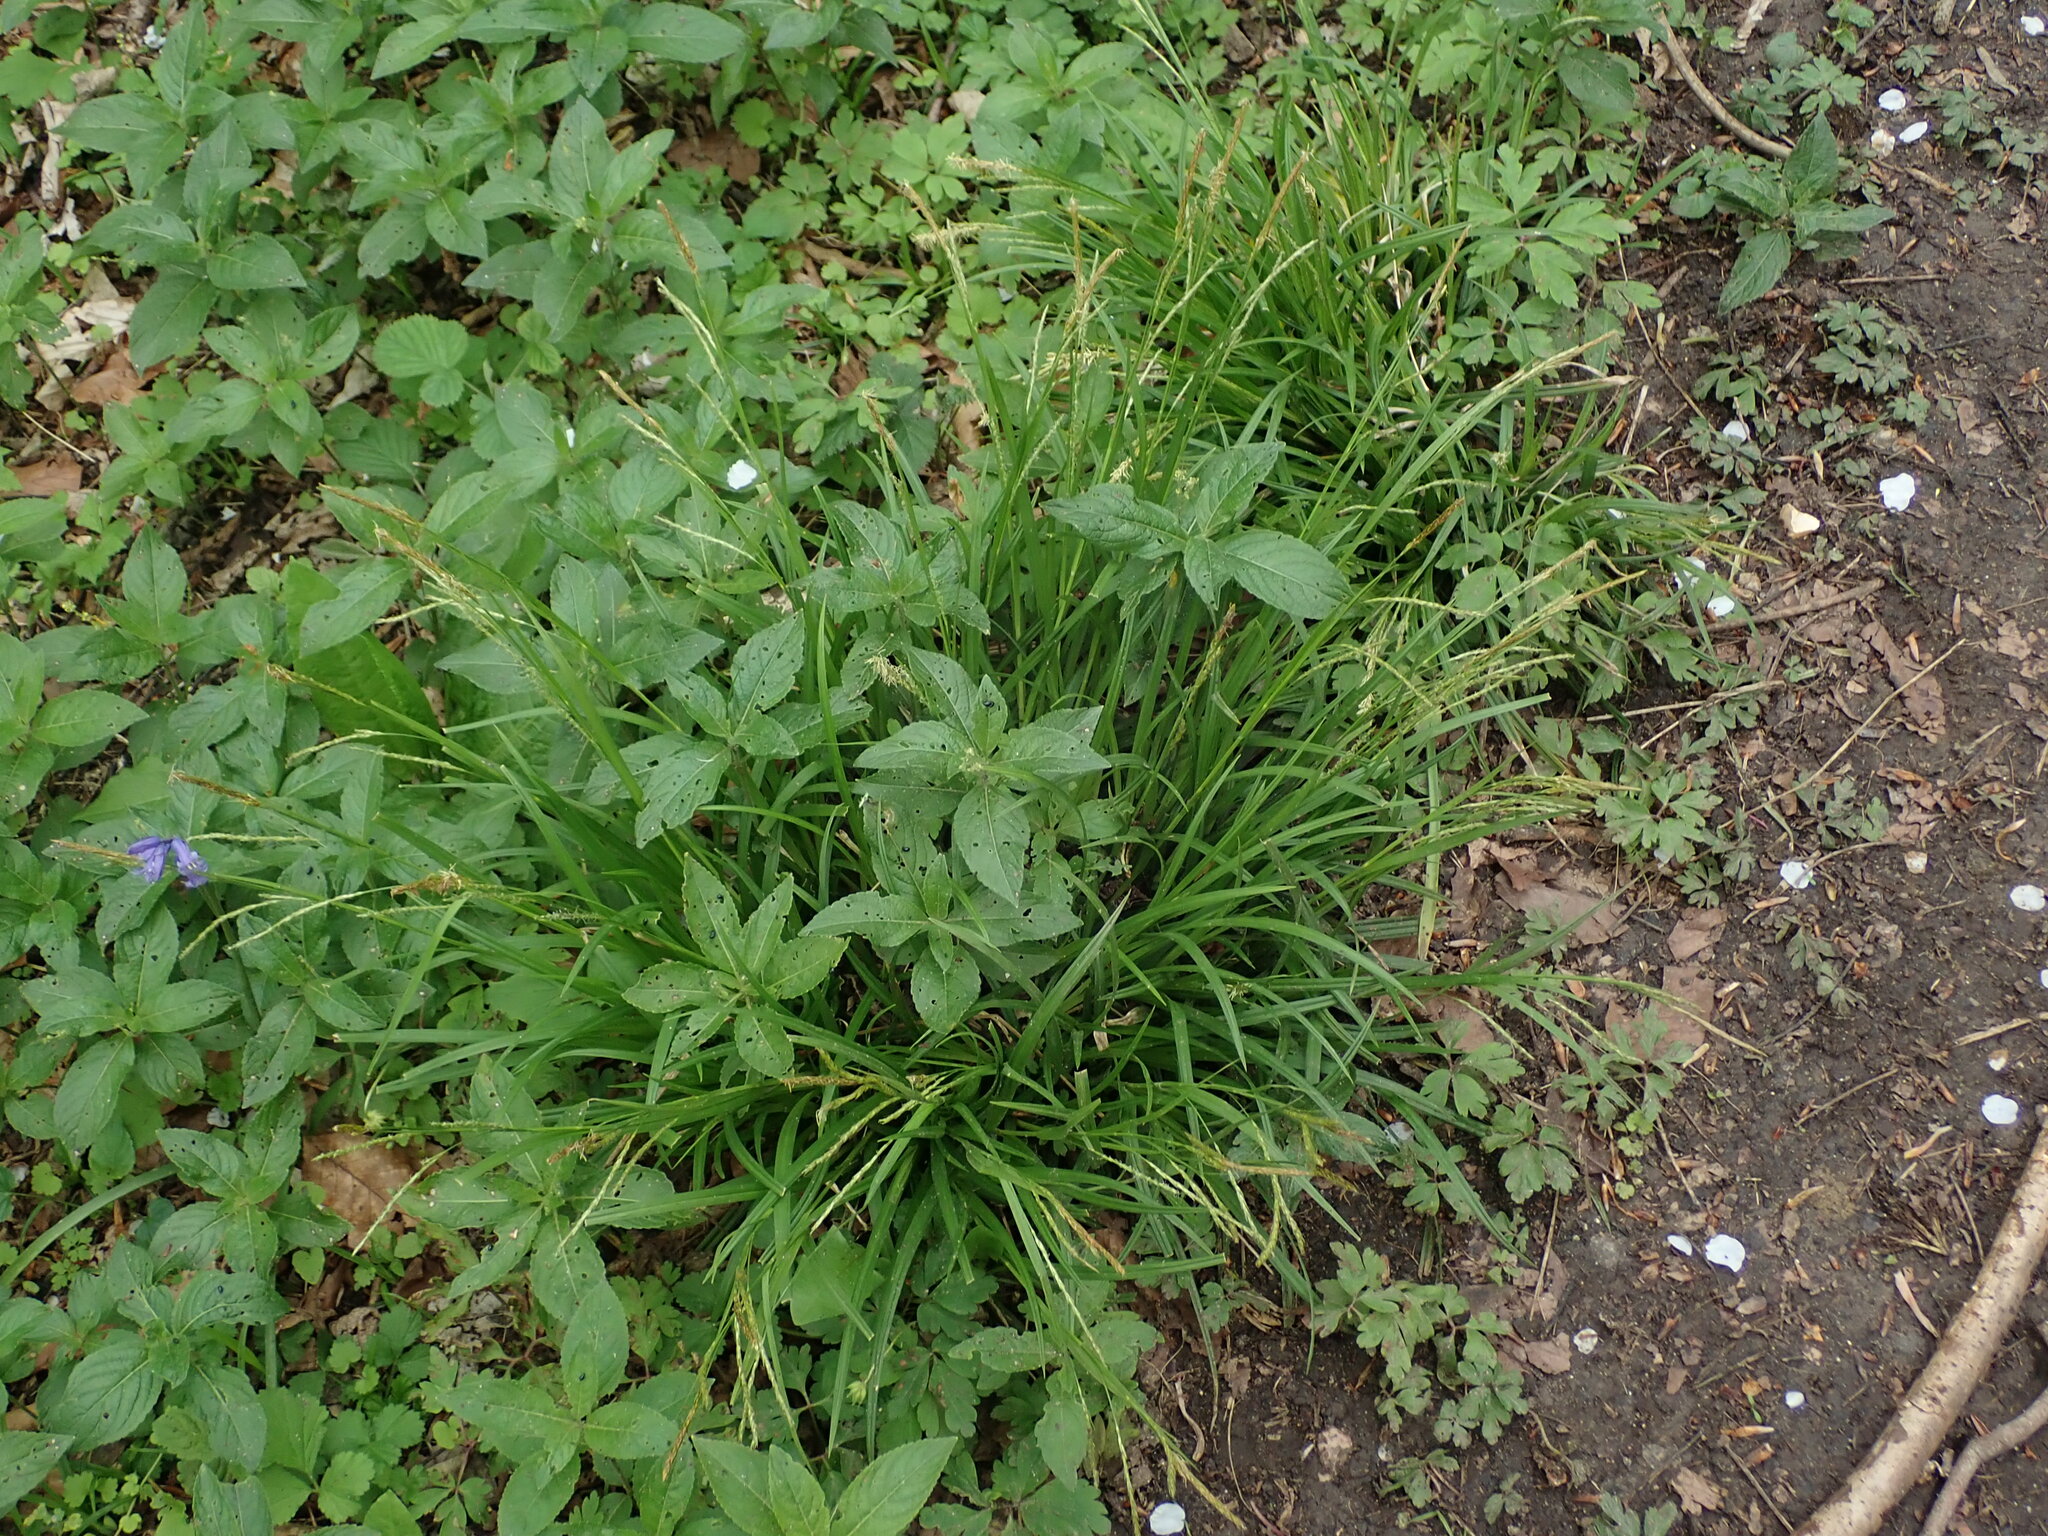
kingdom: Plantae
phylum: Tracheophyta
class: Liliopsida
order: Poales
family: Cyperaceae
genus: Carex
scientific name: Carex sylvatica
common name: Wood-sedge
